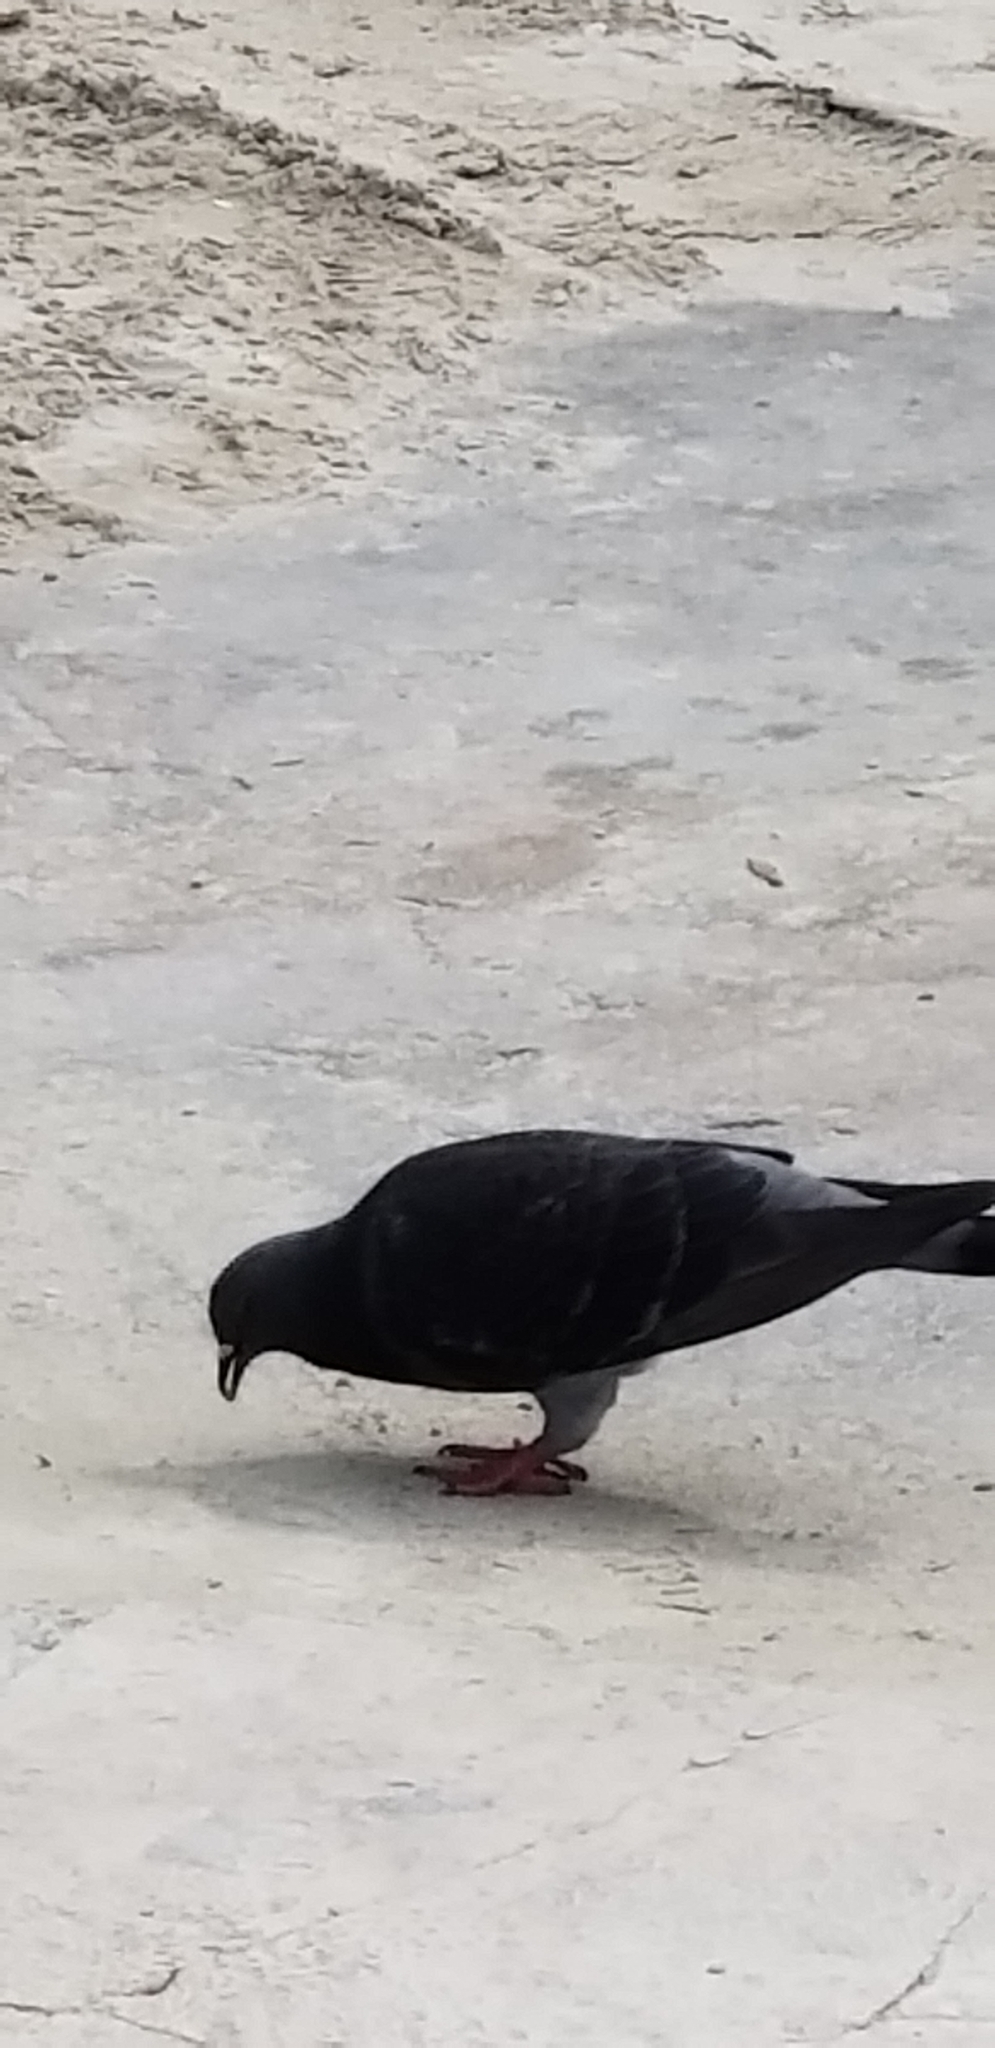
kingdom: Animalia
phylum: Chordata
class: Aves
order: Columbiformes
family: Columbidae
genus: Columba
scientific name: Columba livia
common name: Rock pigeon
